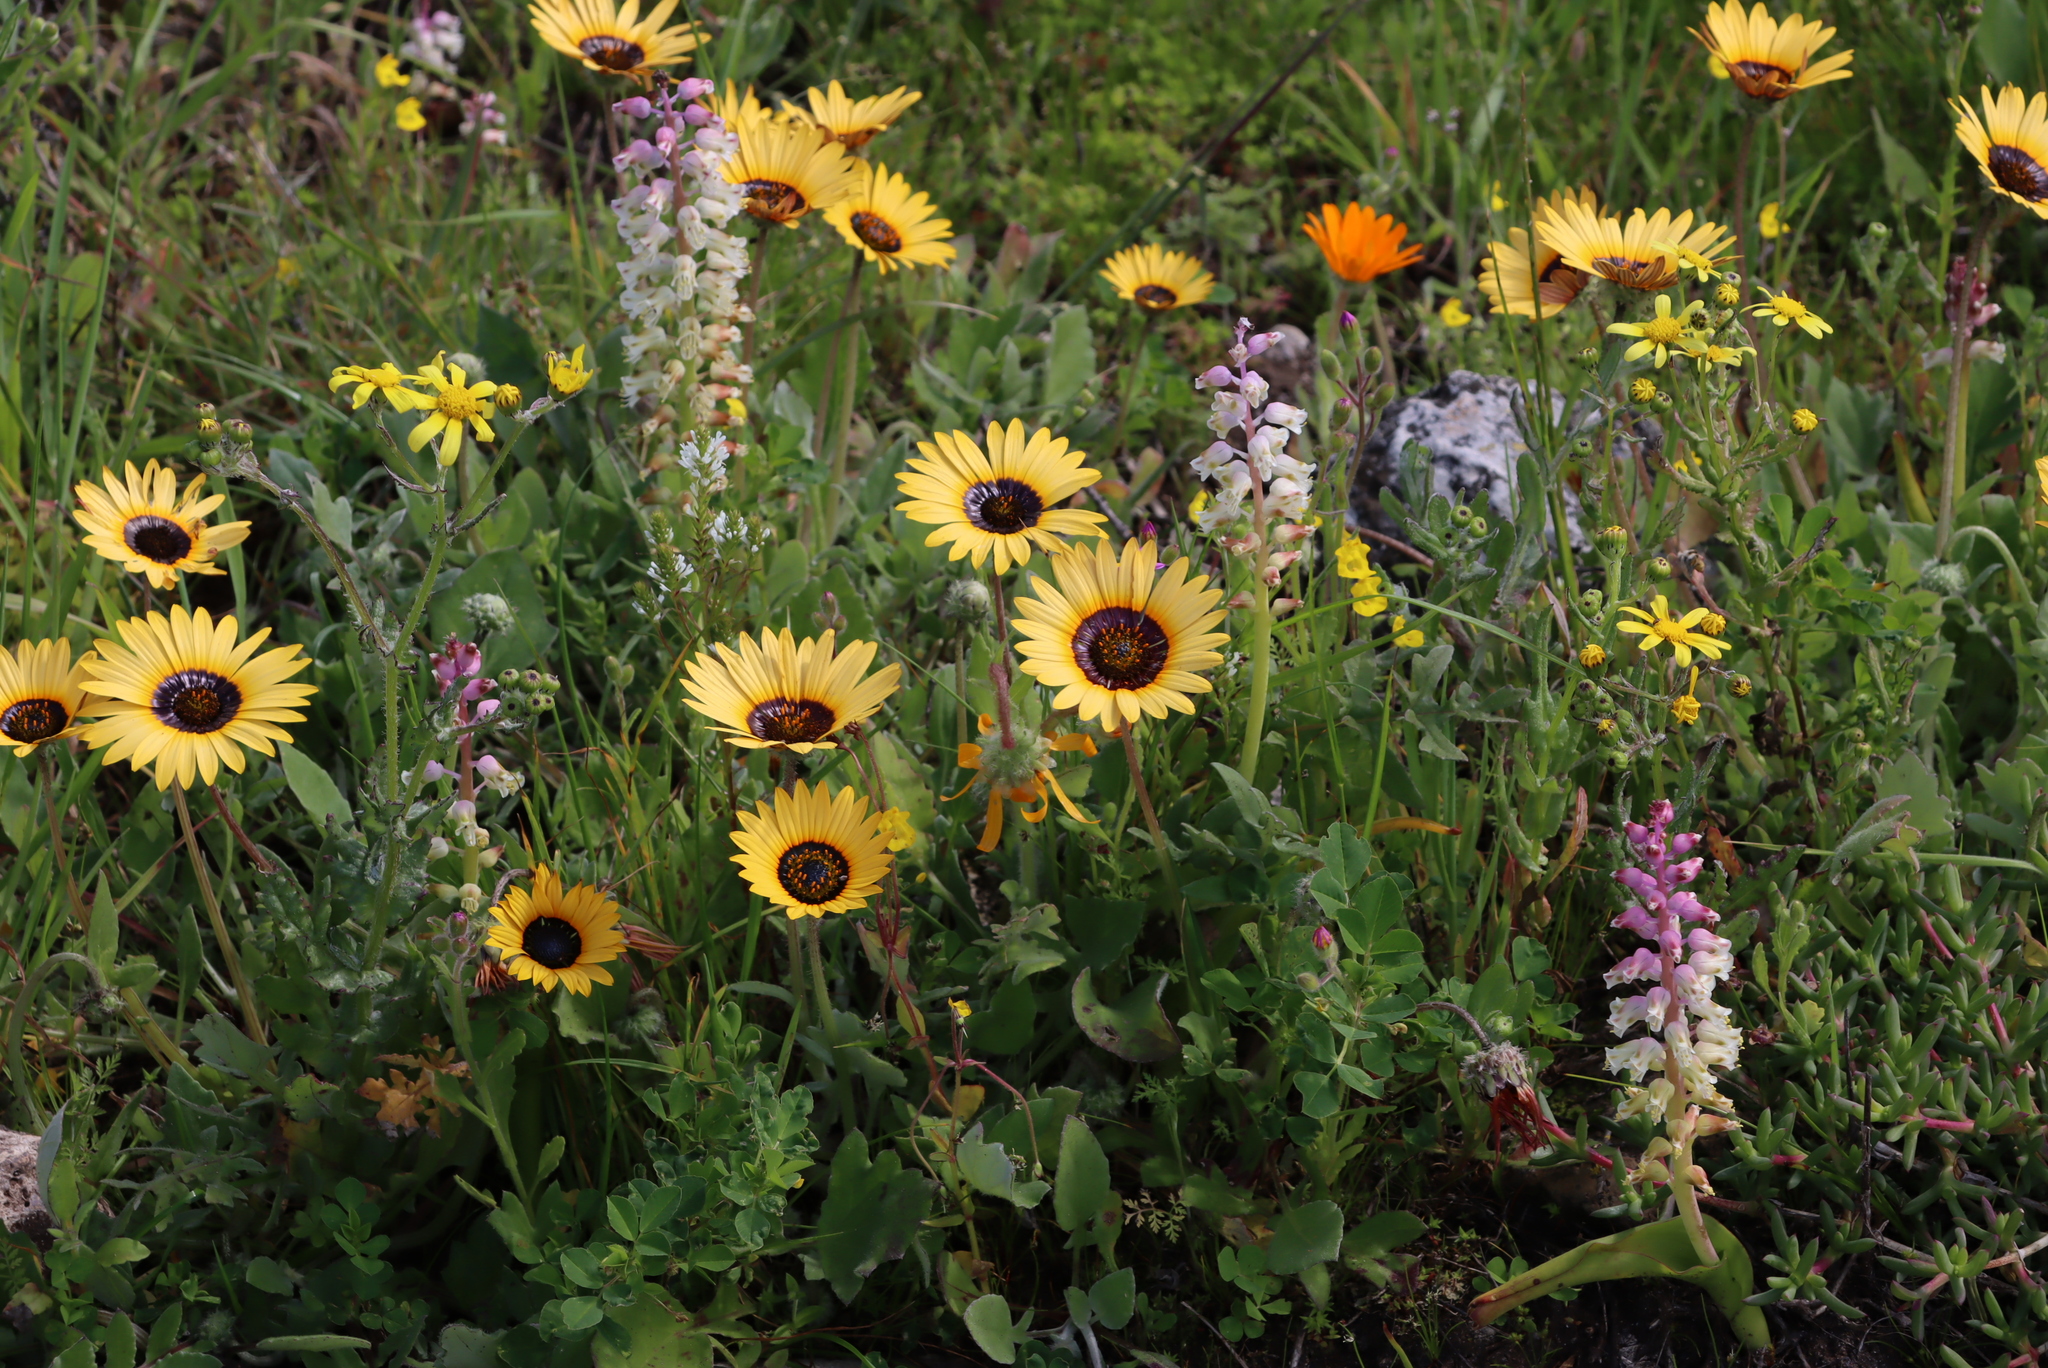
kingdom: Plantae
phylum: Tracheophyta
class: Liliopsida
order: Asparagales
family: Asparagaceae
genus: Lachenalia
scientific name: Lachenalia pallida
